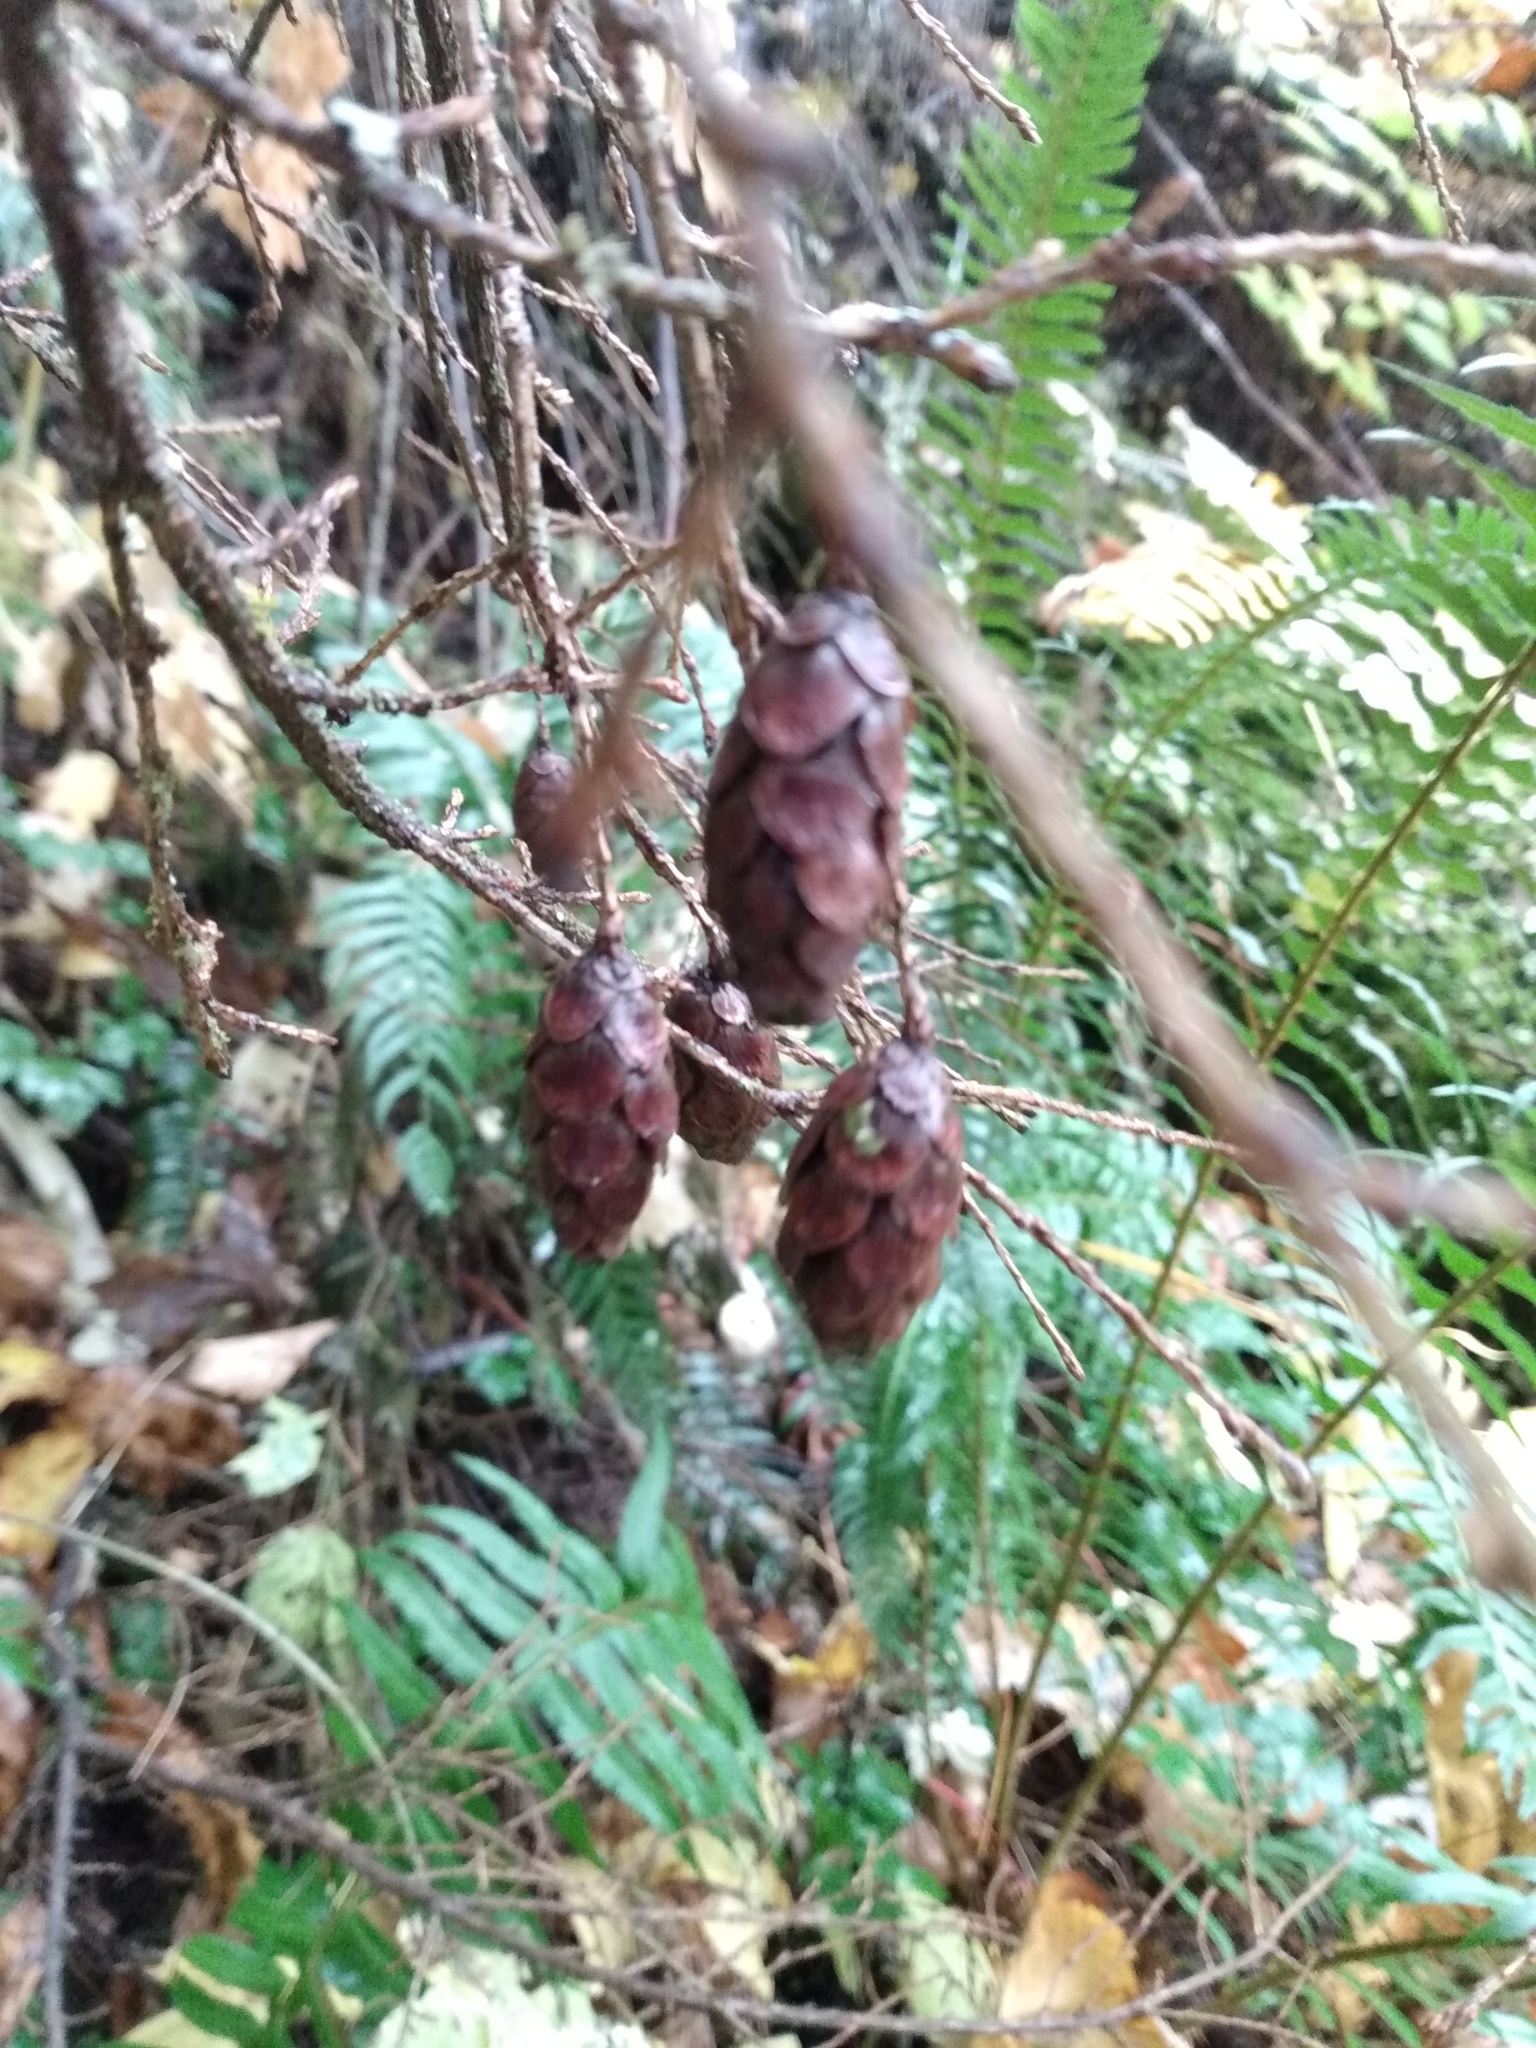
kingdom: Plantae
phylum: Tracheophyta
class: Pinopsida
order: Pinales
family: Pinaceae
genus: Tsuga
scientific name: Tsuga heterophylla
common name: Western hemlock
